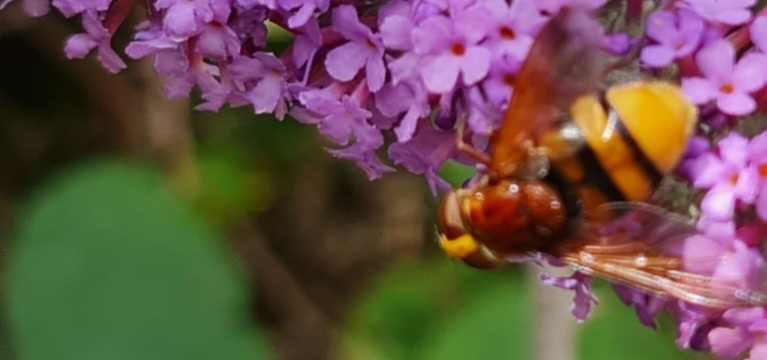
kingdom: Animalia
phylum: Arthropoda
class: Insecta
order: Diptera
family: Syrphidae
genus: Volucella
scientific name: Volucella zonaria
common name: Hornet hoverfly
